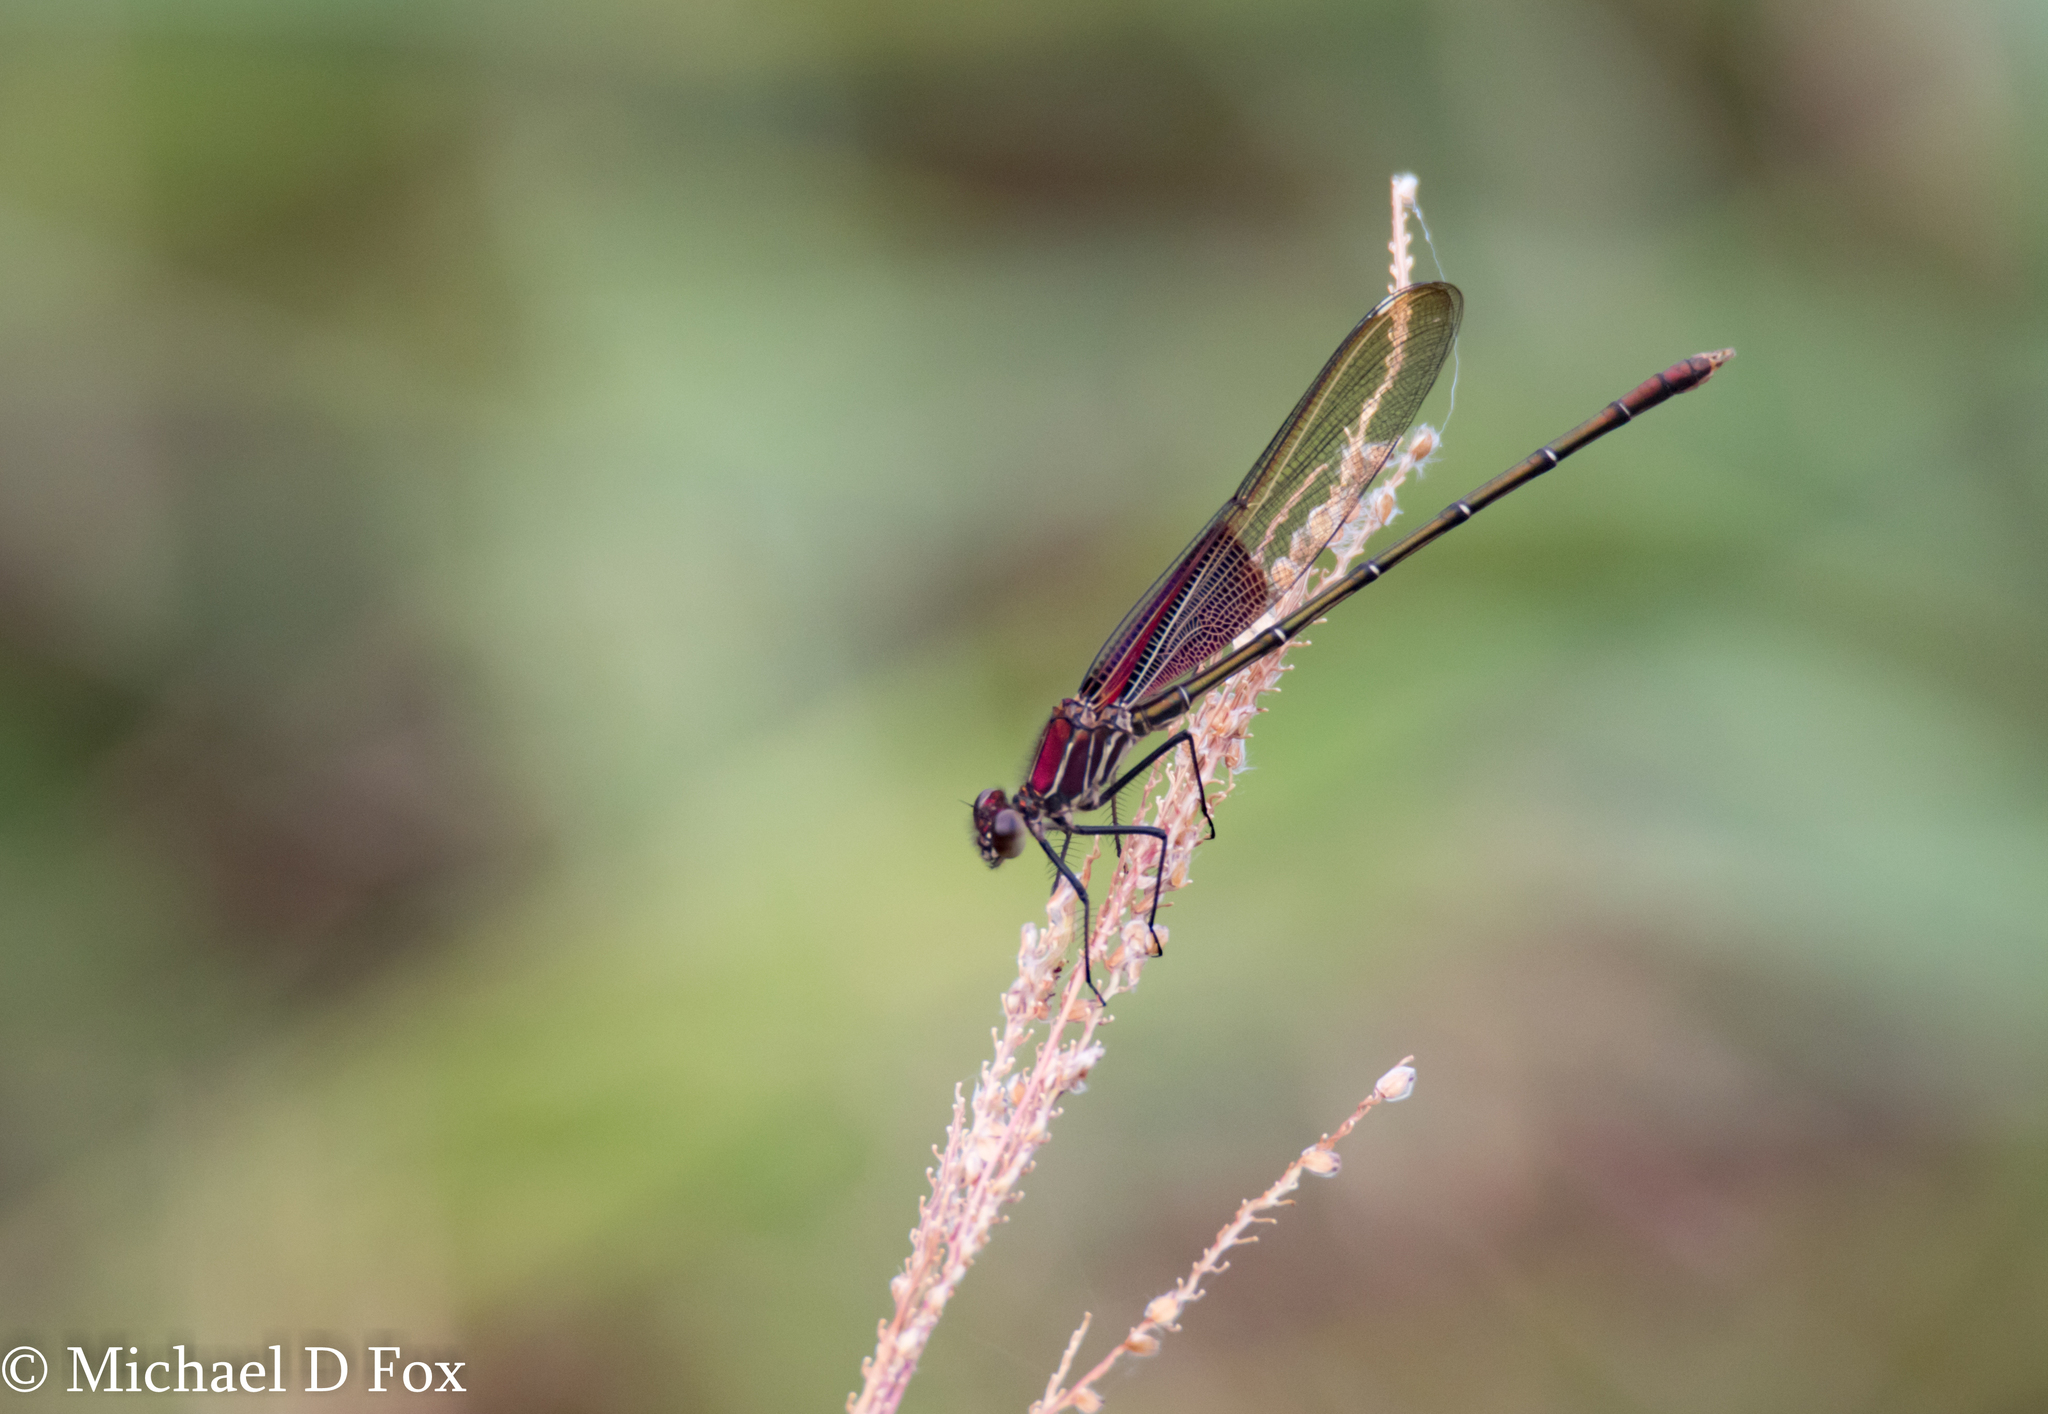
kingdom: Animalia
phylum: Arthropoda
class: Insecta
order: Odonata
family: Calopterygidae
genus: Hetaerina
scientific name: Hetaerina americana
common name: American rubyspot
